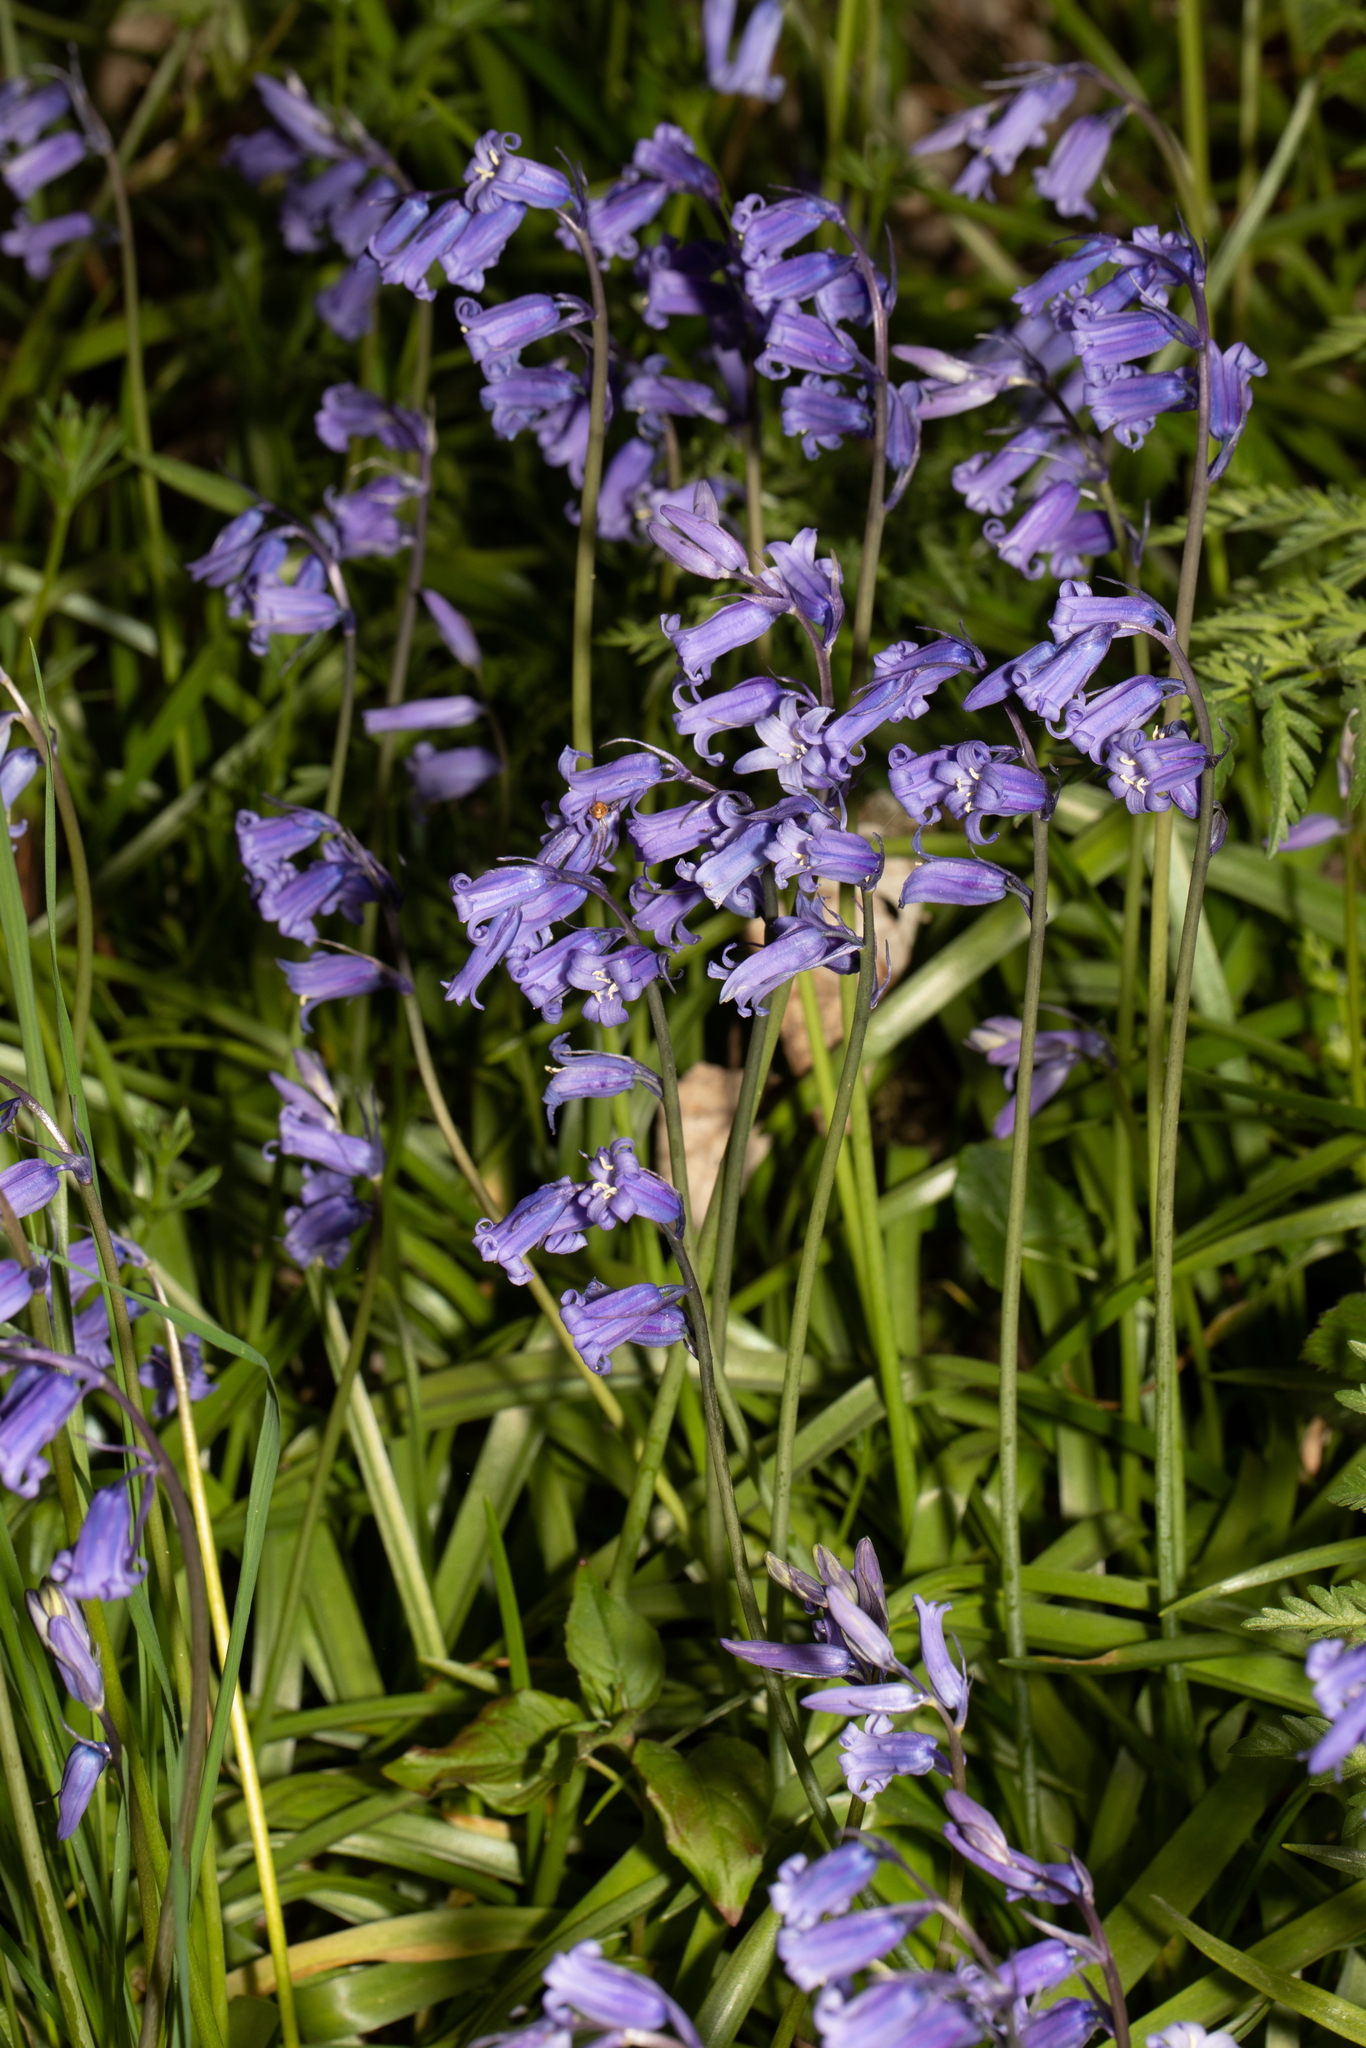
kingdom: Plantae
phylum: Tracheophyta
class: Liliopsida
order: Asparagales
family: Asparagaceae
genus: Hyacinthoides
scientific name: Hyacinthoides non-scripta
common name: Bluebell
